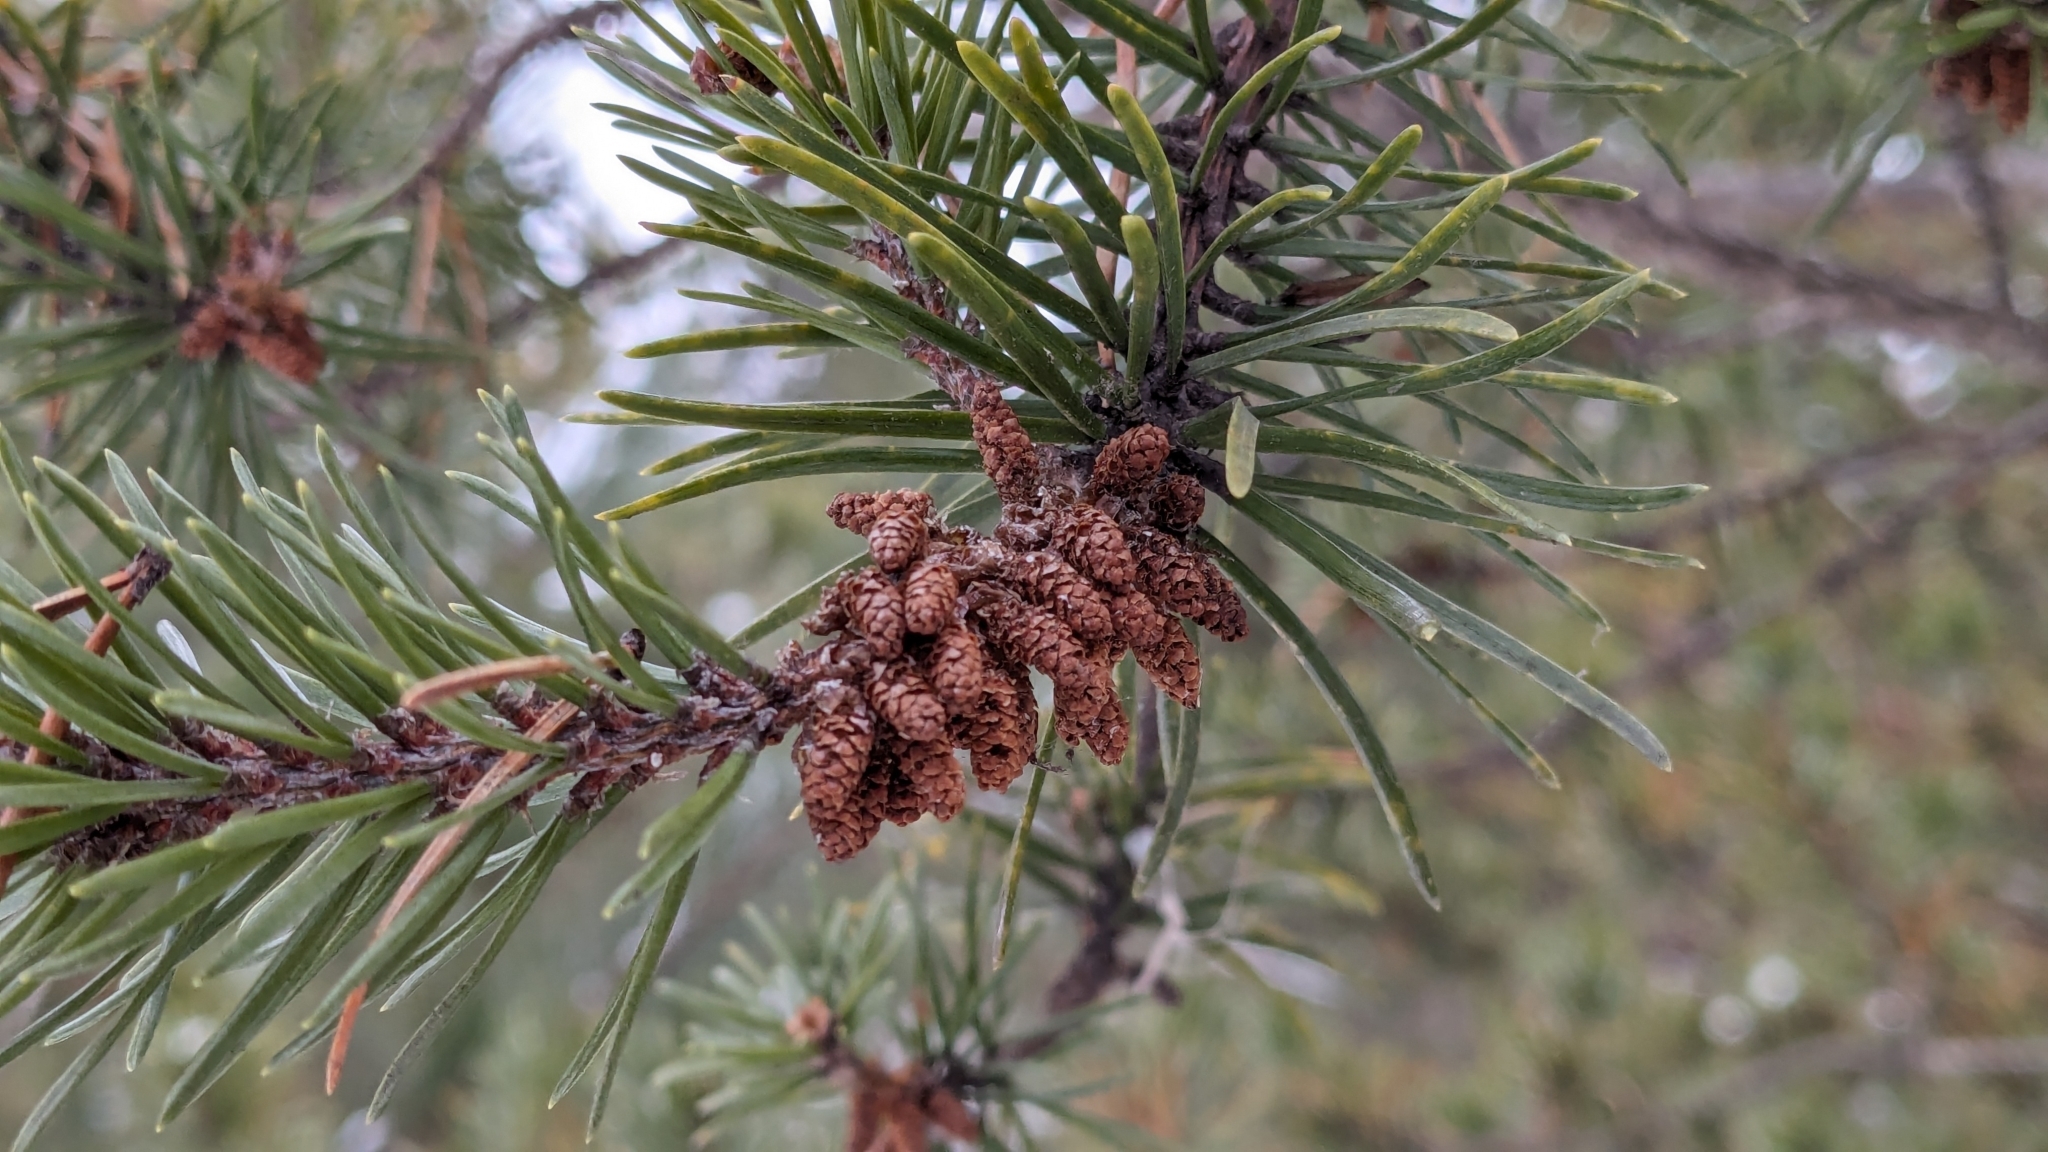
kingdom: Plantae
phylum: Tracheophyta
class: Pinopsida
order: Pinales
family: Pinaceae
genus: Pinus
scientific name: Pinus banksiana
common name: Jack pine
